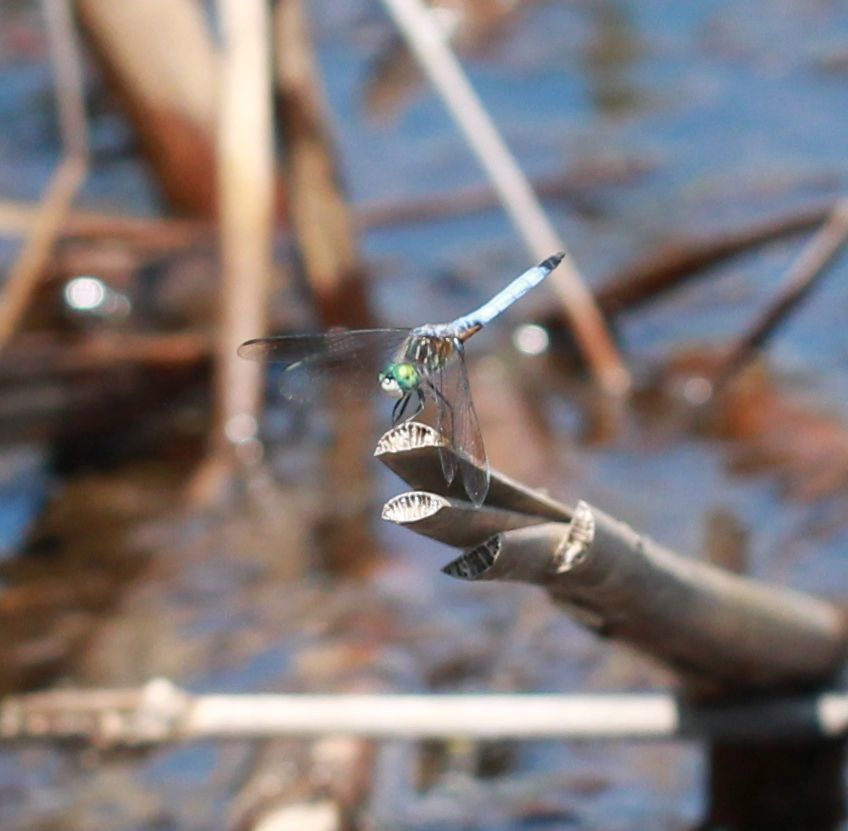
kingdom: Animalia
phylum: Arthropoda
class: Insecta
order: Odonata
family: Libellulidae
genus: Pachydiplax
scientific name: Pachydiplax longipennis
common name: Blue dasher
